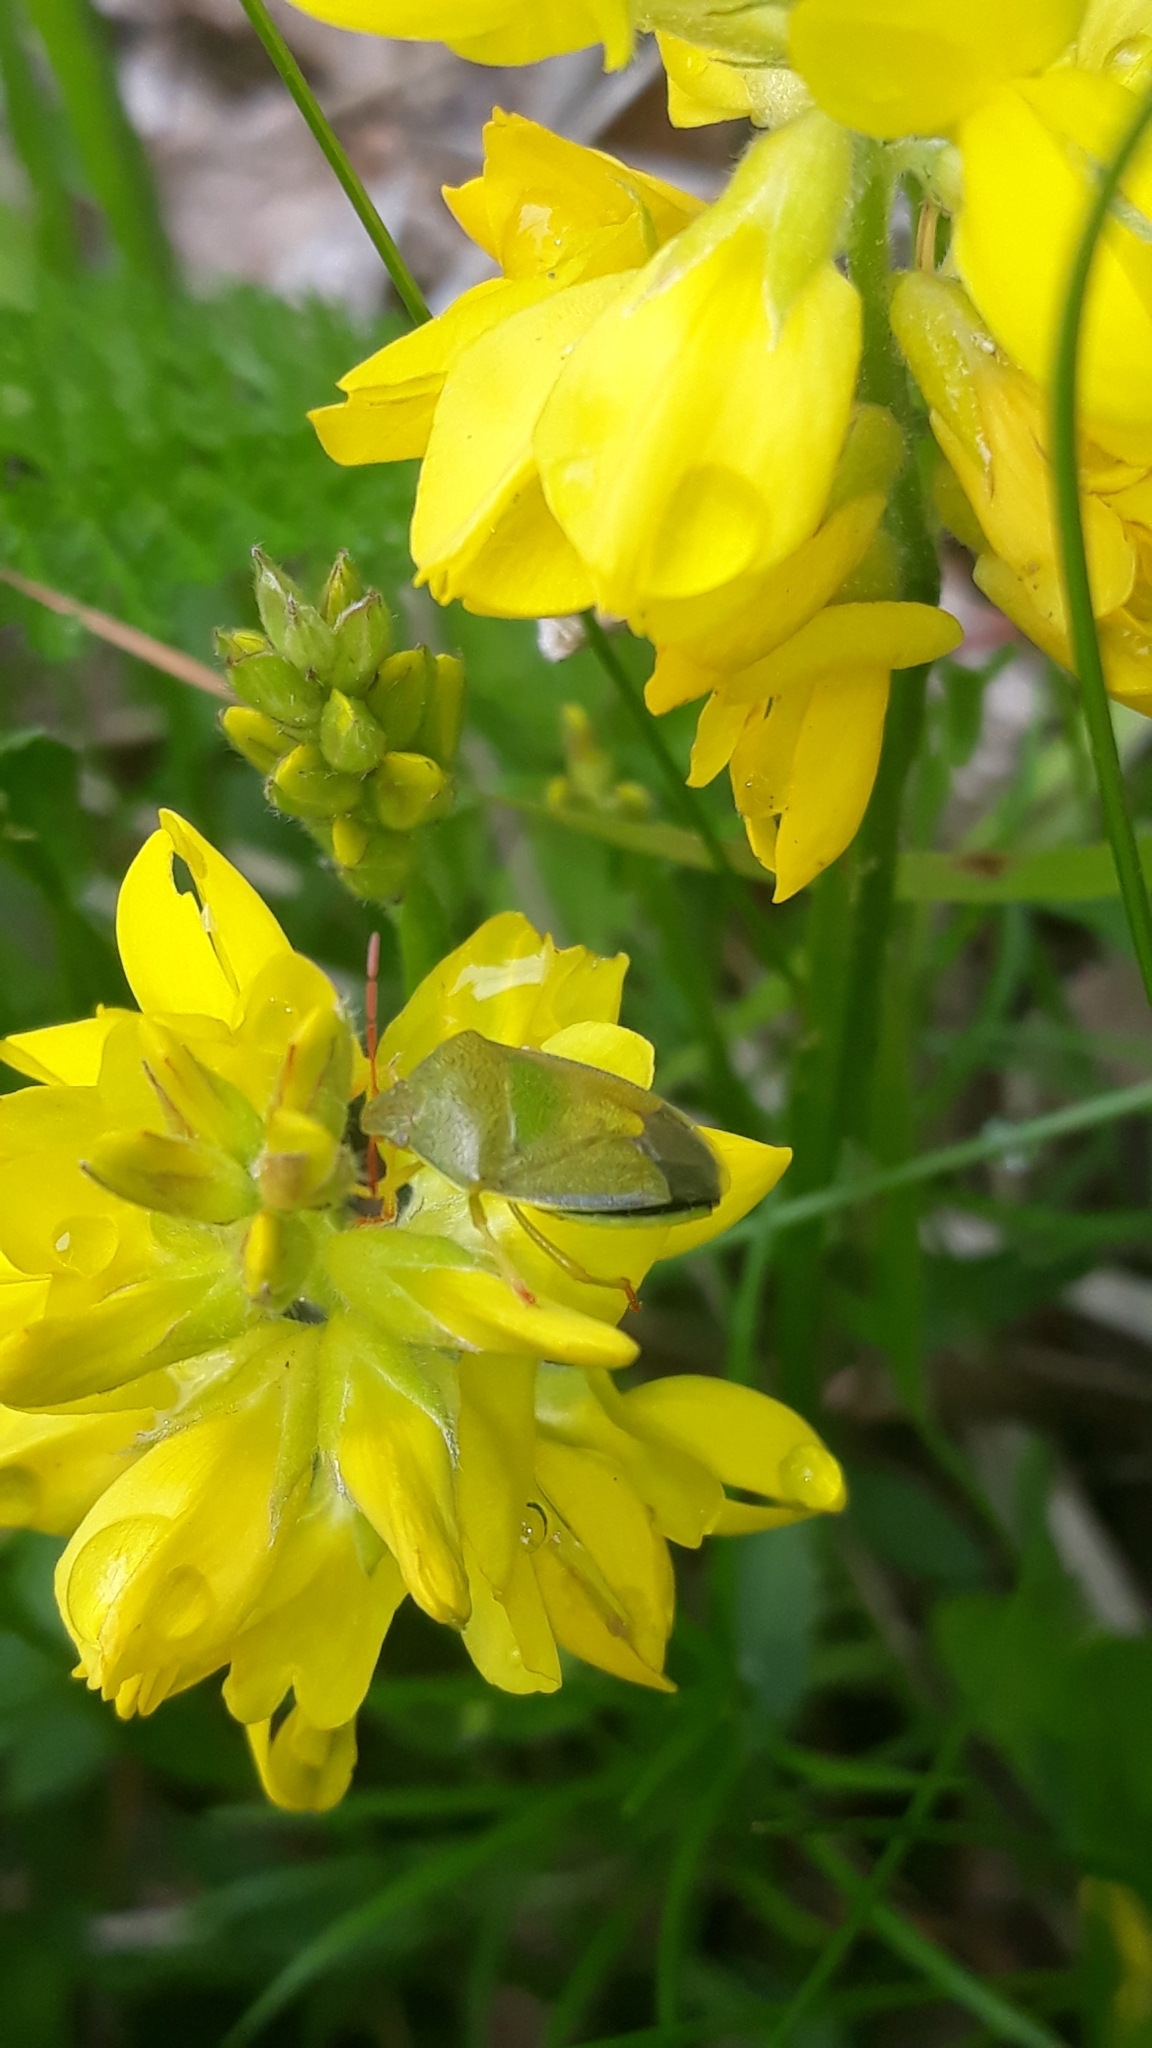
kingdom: Animalia
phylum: Arthropoda
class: Insecta
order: Hemiptera
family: Pentatomidae
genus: Piezodorus
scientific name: Piezodorus lituratus
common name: Stink bug
